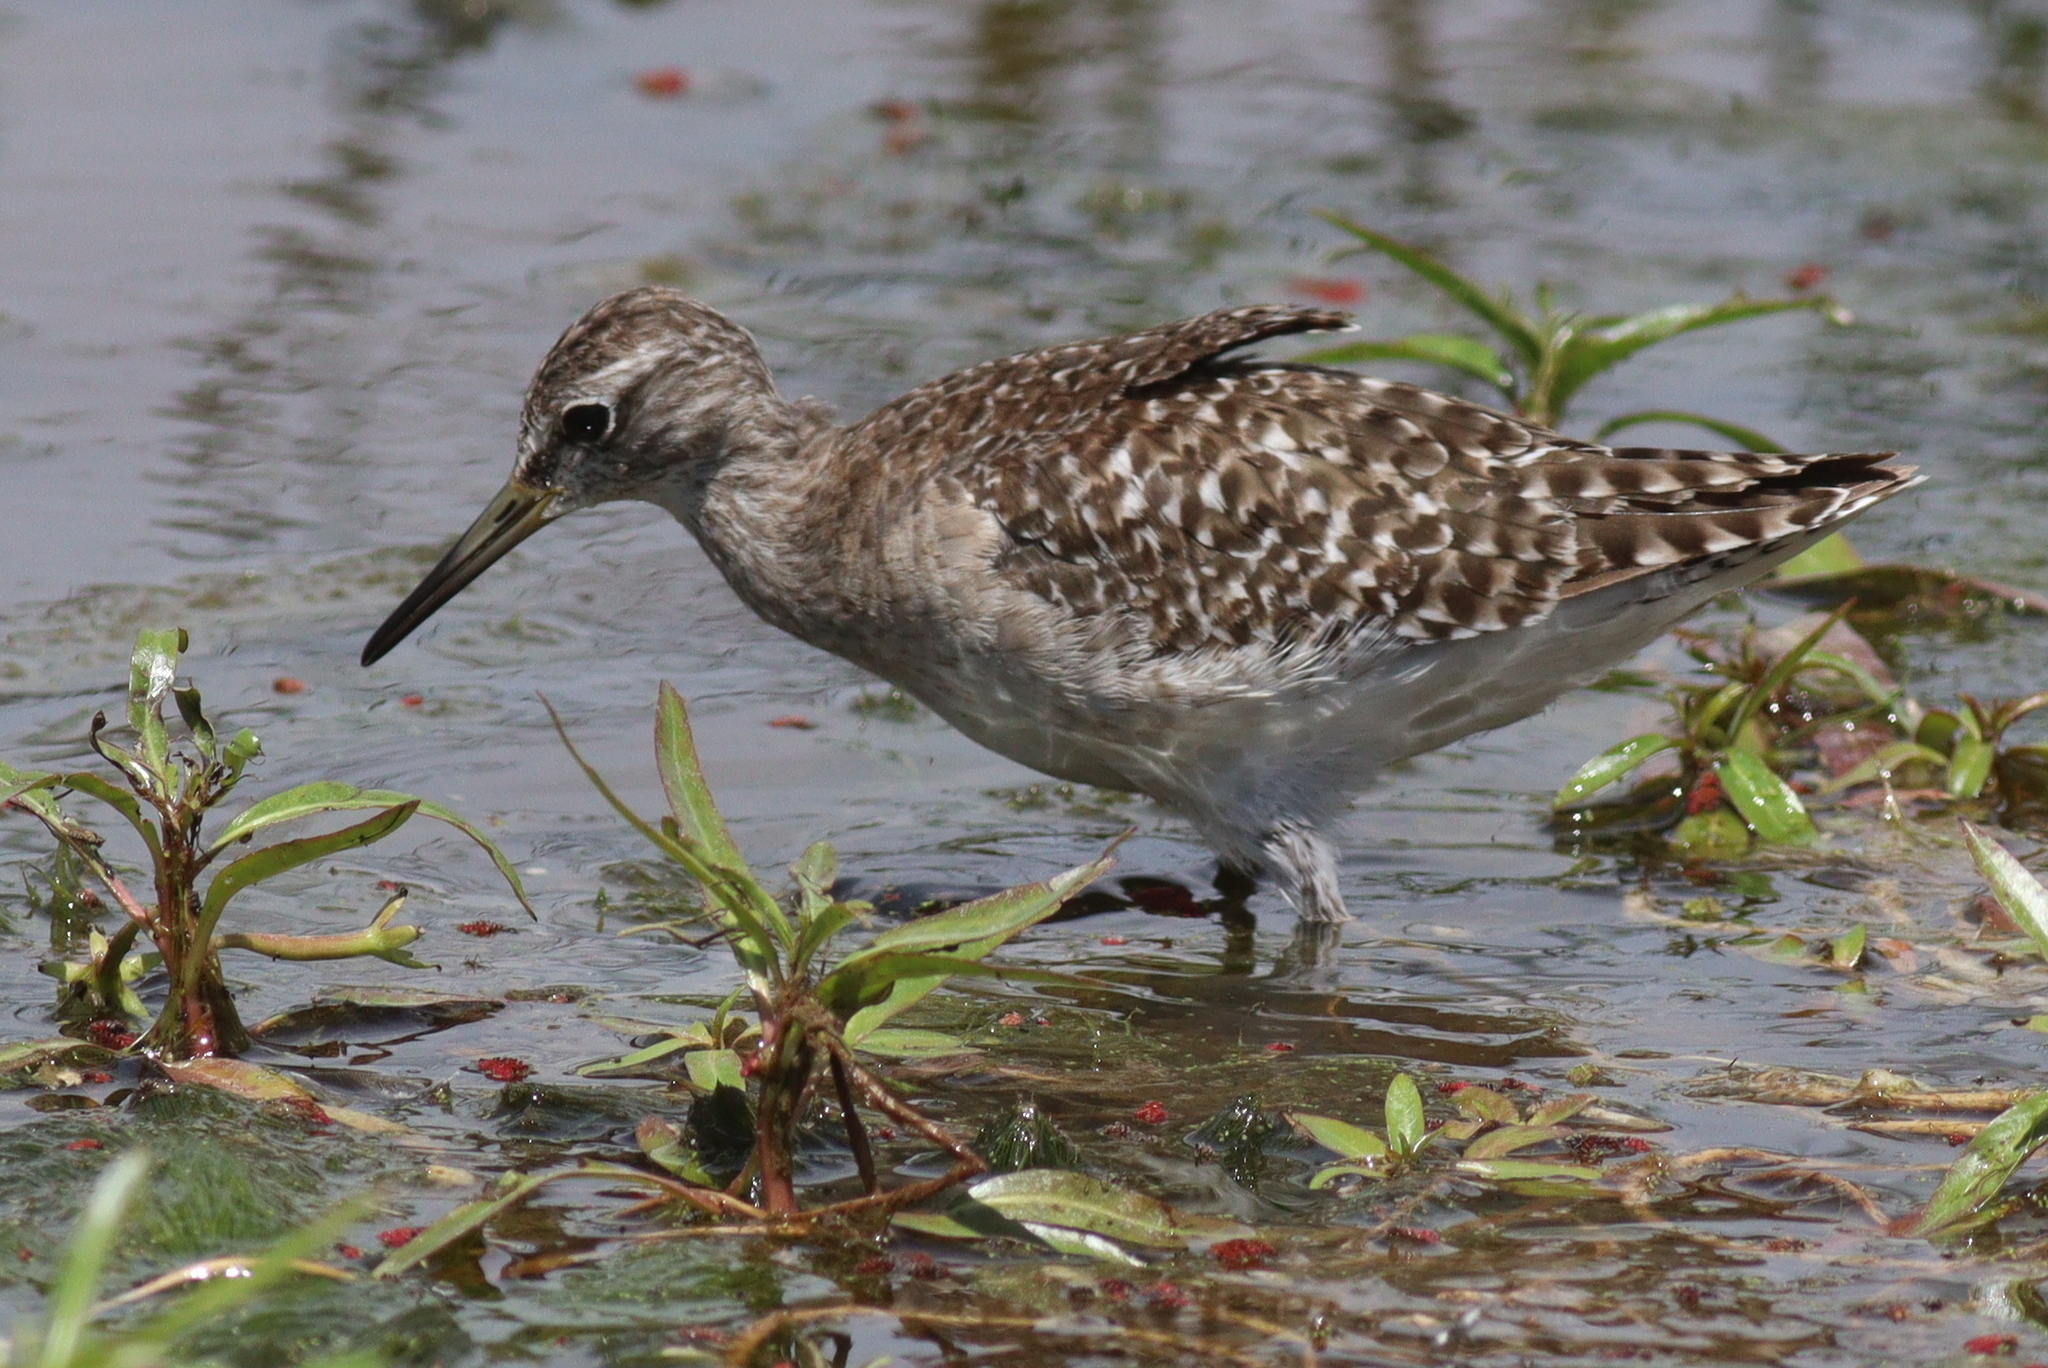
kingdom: Animalia
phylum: Chordata
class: Aves
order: Charadriiformes
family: Scolopacidae
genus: Tringa
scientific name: Tringa glareola
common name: Wood sandpiper
